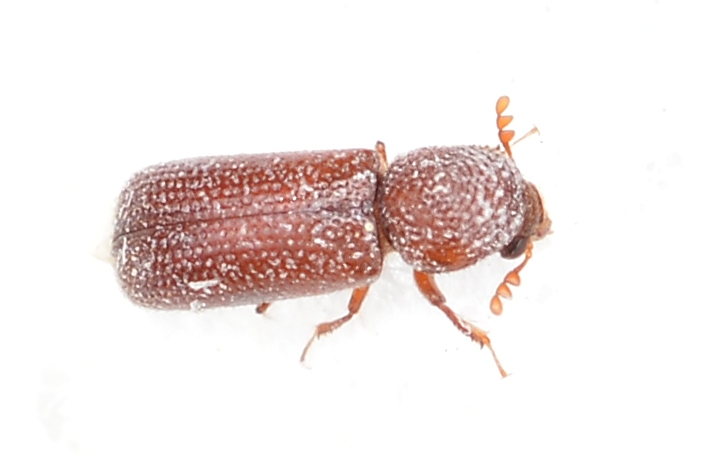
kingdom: Animalia
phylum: Arthropoda
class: Insecta
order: Coleoptera
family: Bostrichidae
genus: Rhyzopertha
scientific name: Rhyzopertha dominica
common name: Lesser grain borer
